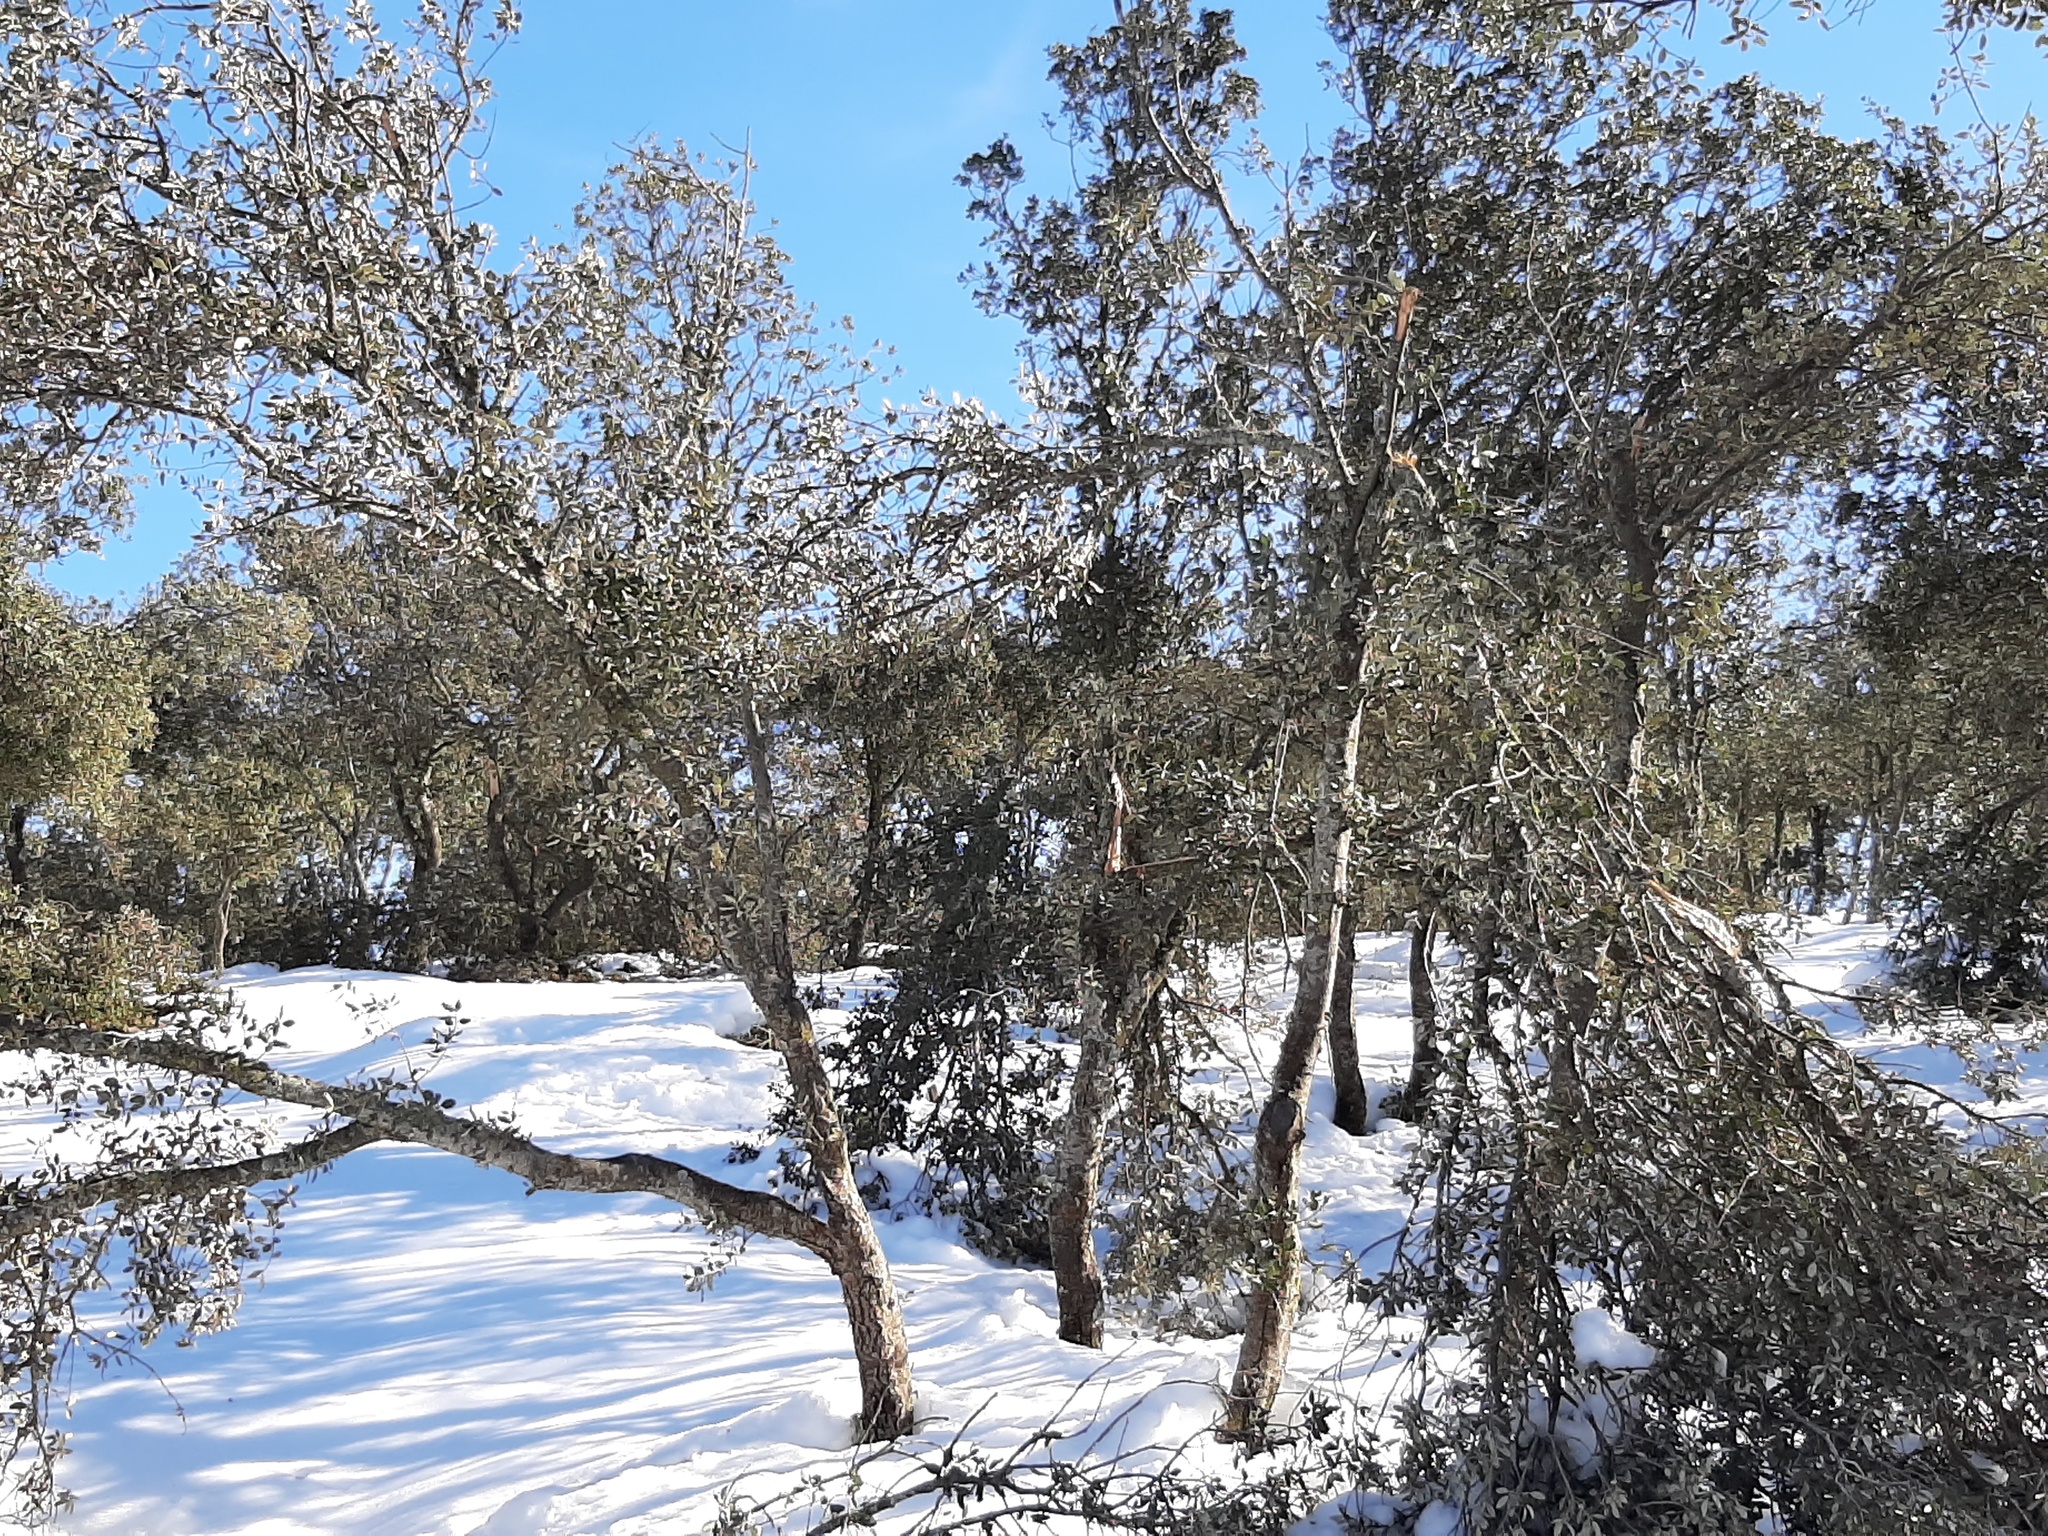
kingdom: Plantae
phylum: Tracheophyta
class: Magnoliopsida
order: Fagales
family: Fagaceae
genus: Quercus
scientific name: Quercus rotundifolia
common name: Holm oak
